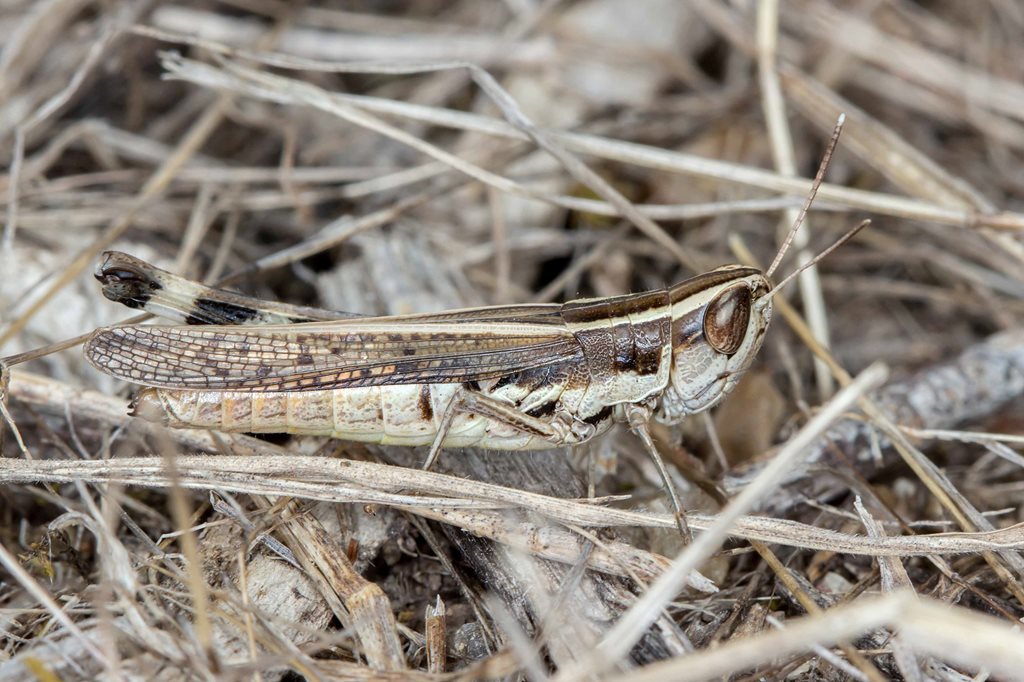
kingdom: Animalia
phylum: Arthropoda
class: Insecta
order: Orthoptera
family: Acrididae
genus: Macrotona
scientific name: Macrotona securiformis
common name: Inland macrotona
